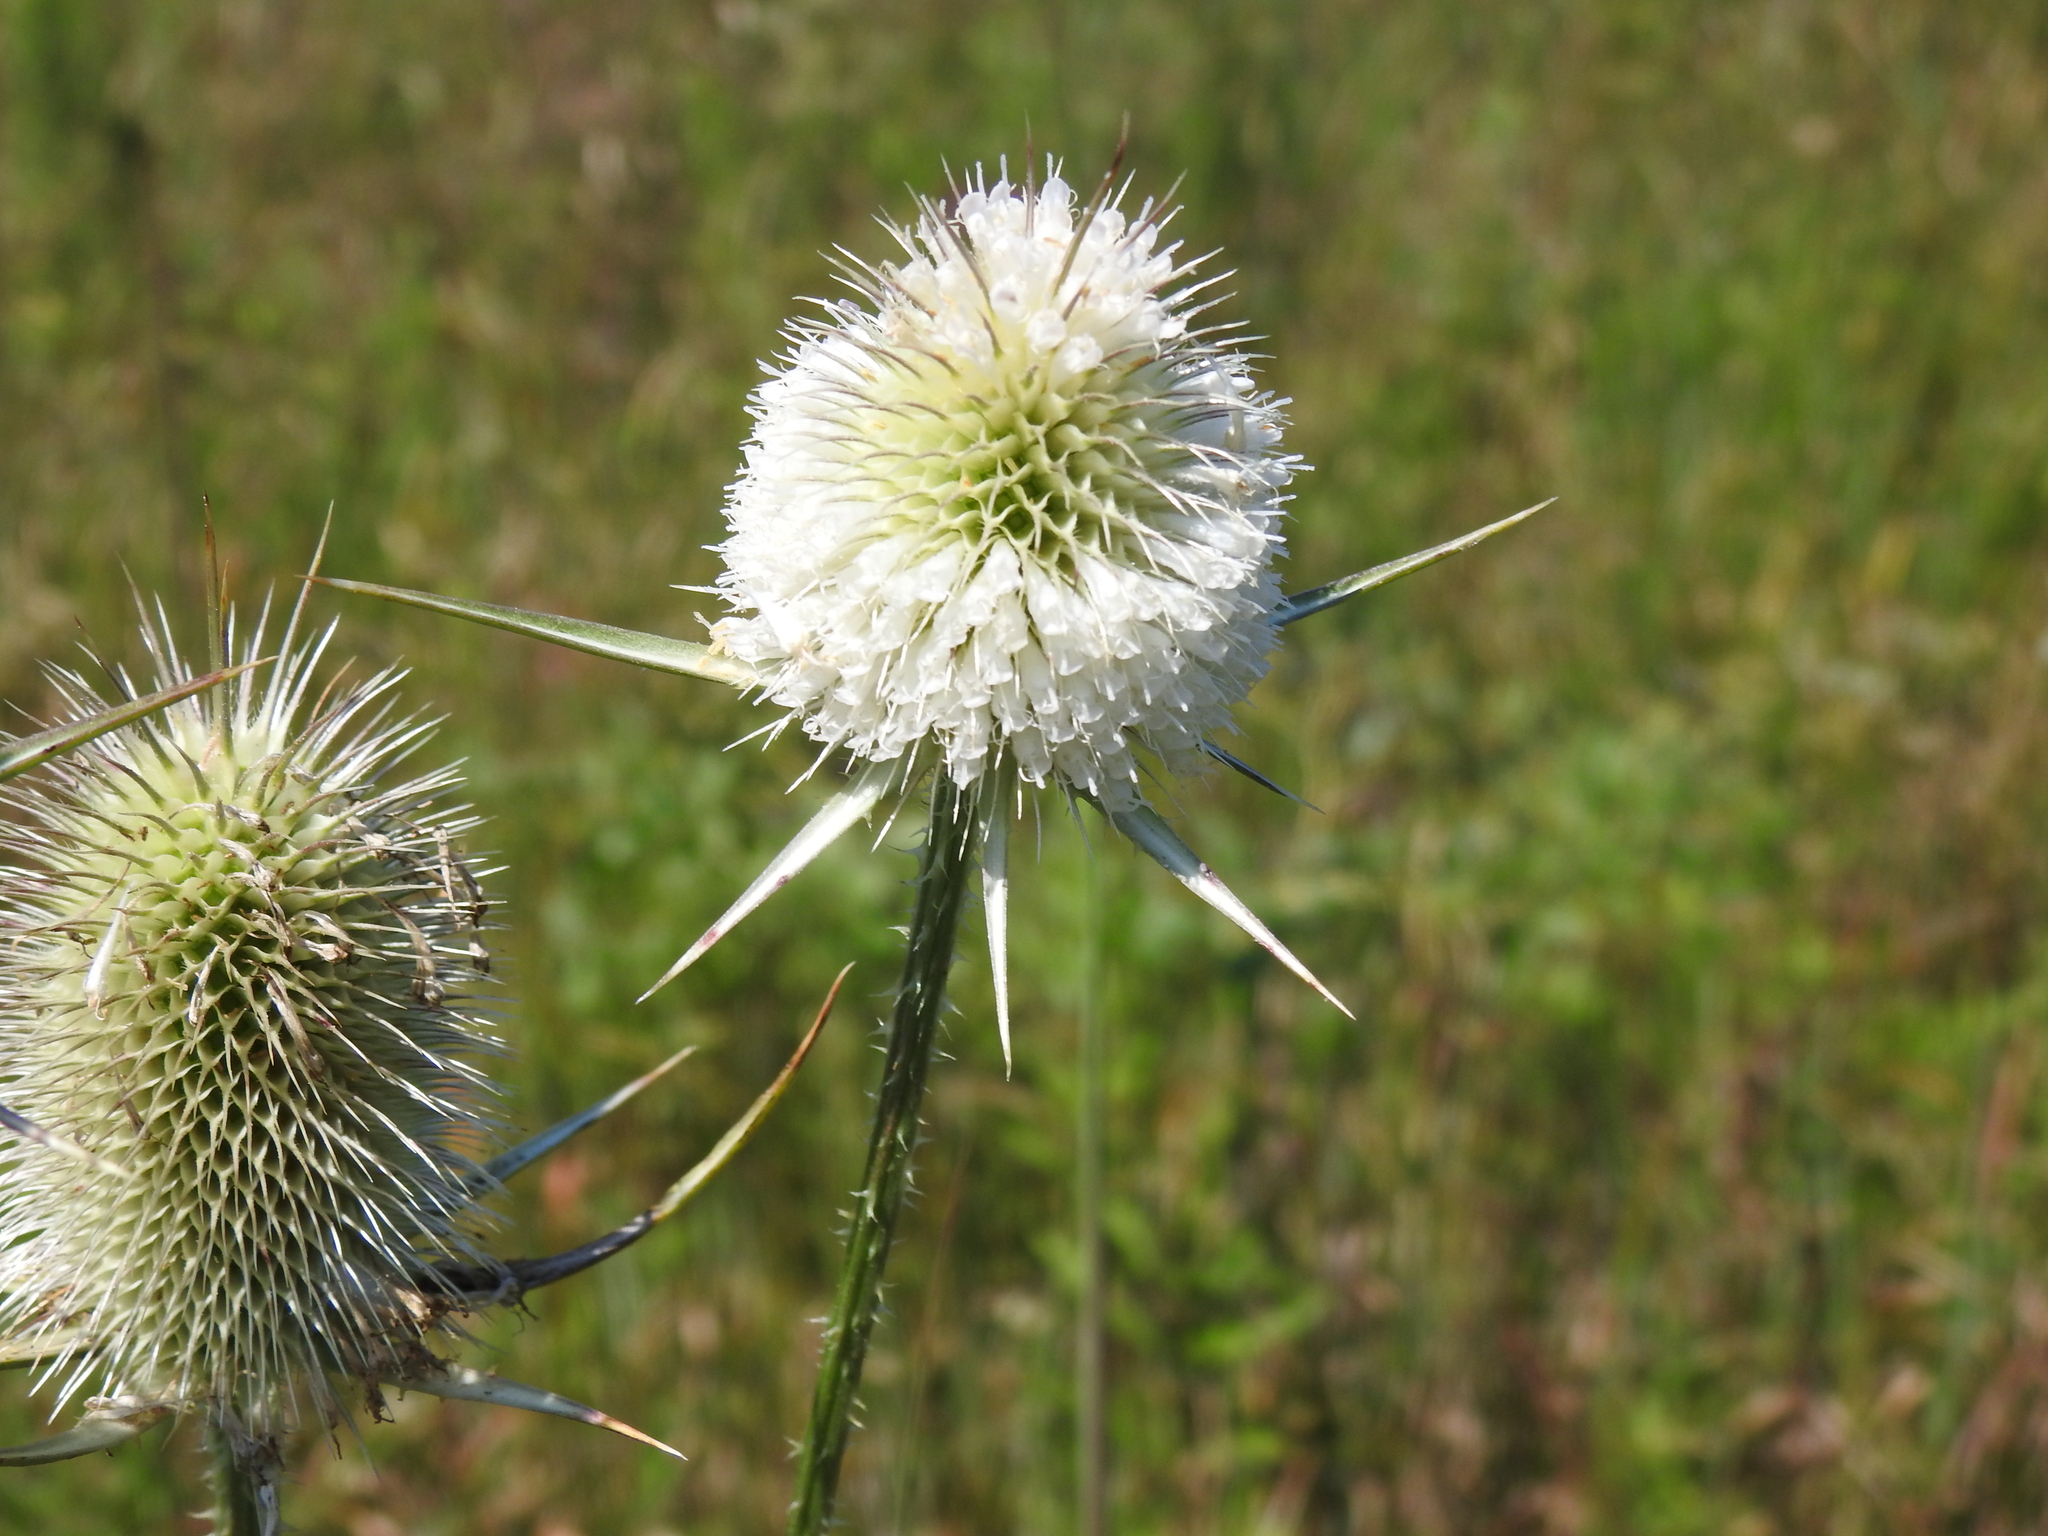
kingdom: Plantae
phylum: Tracheophyta
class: Magnoliopsida
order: Dipsacales
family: Caprifoliaceae
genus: Dipsacus
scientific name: Dipsacus laciniatus
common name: Cut-leaved teasel
